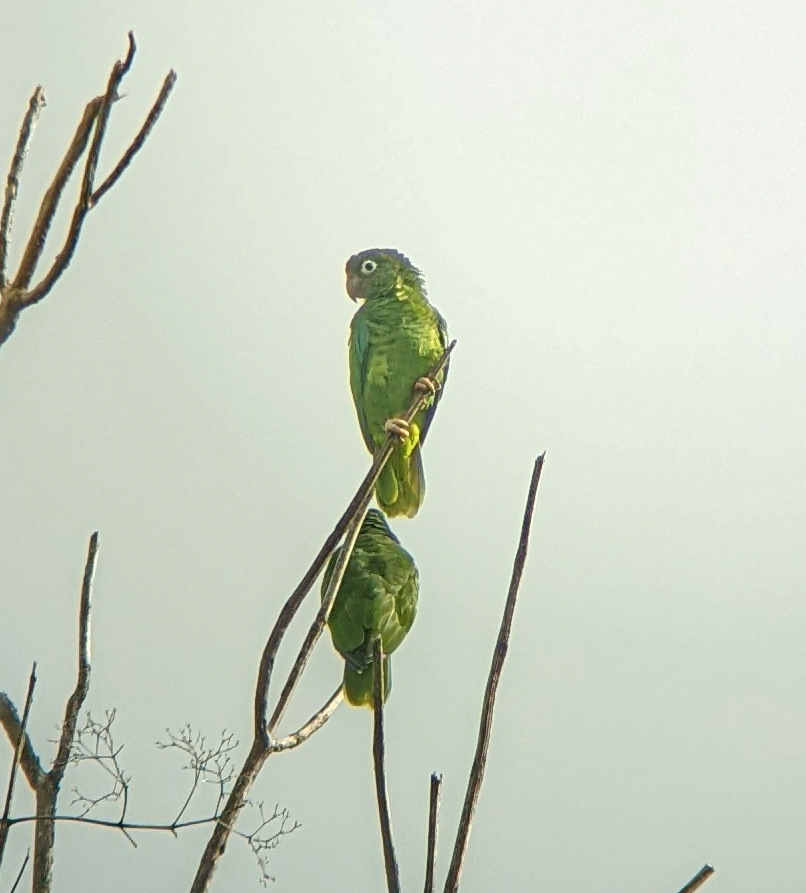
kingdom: Animalia
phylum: Chordata
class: Aves
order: Psittaciformes
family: Psittacidae
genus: Amazona
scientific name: Amazona vittata
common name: Puerto rican amazon
